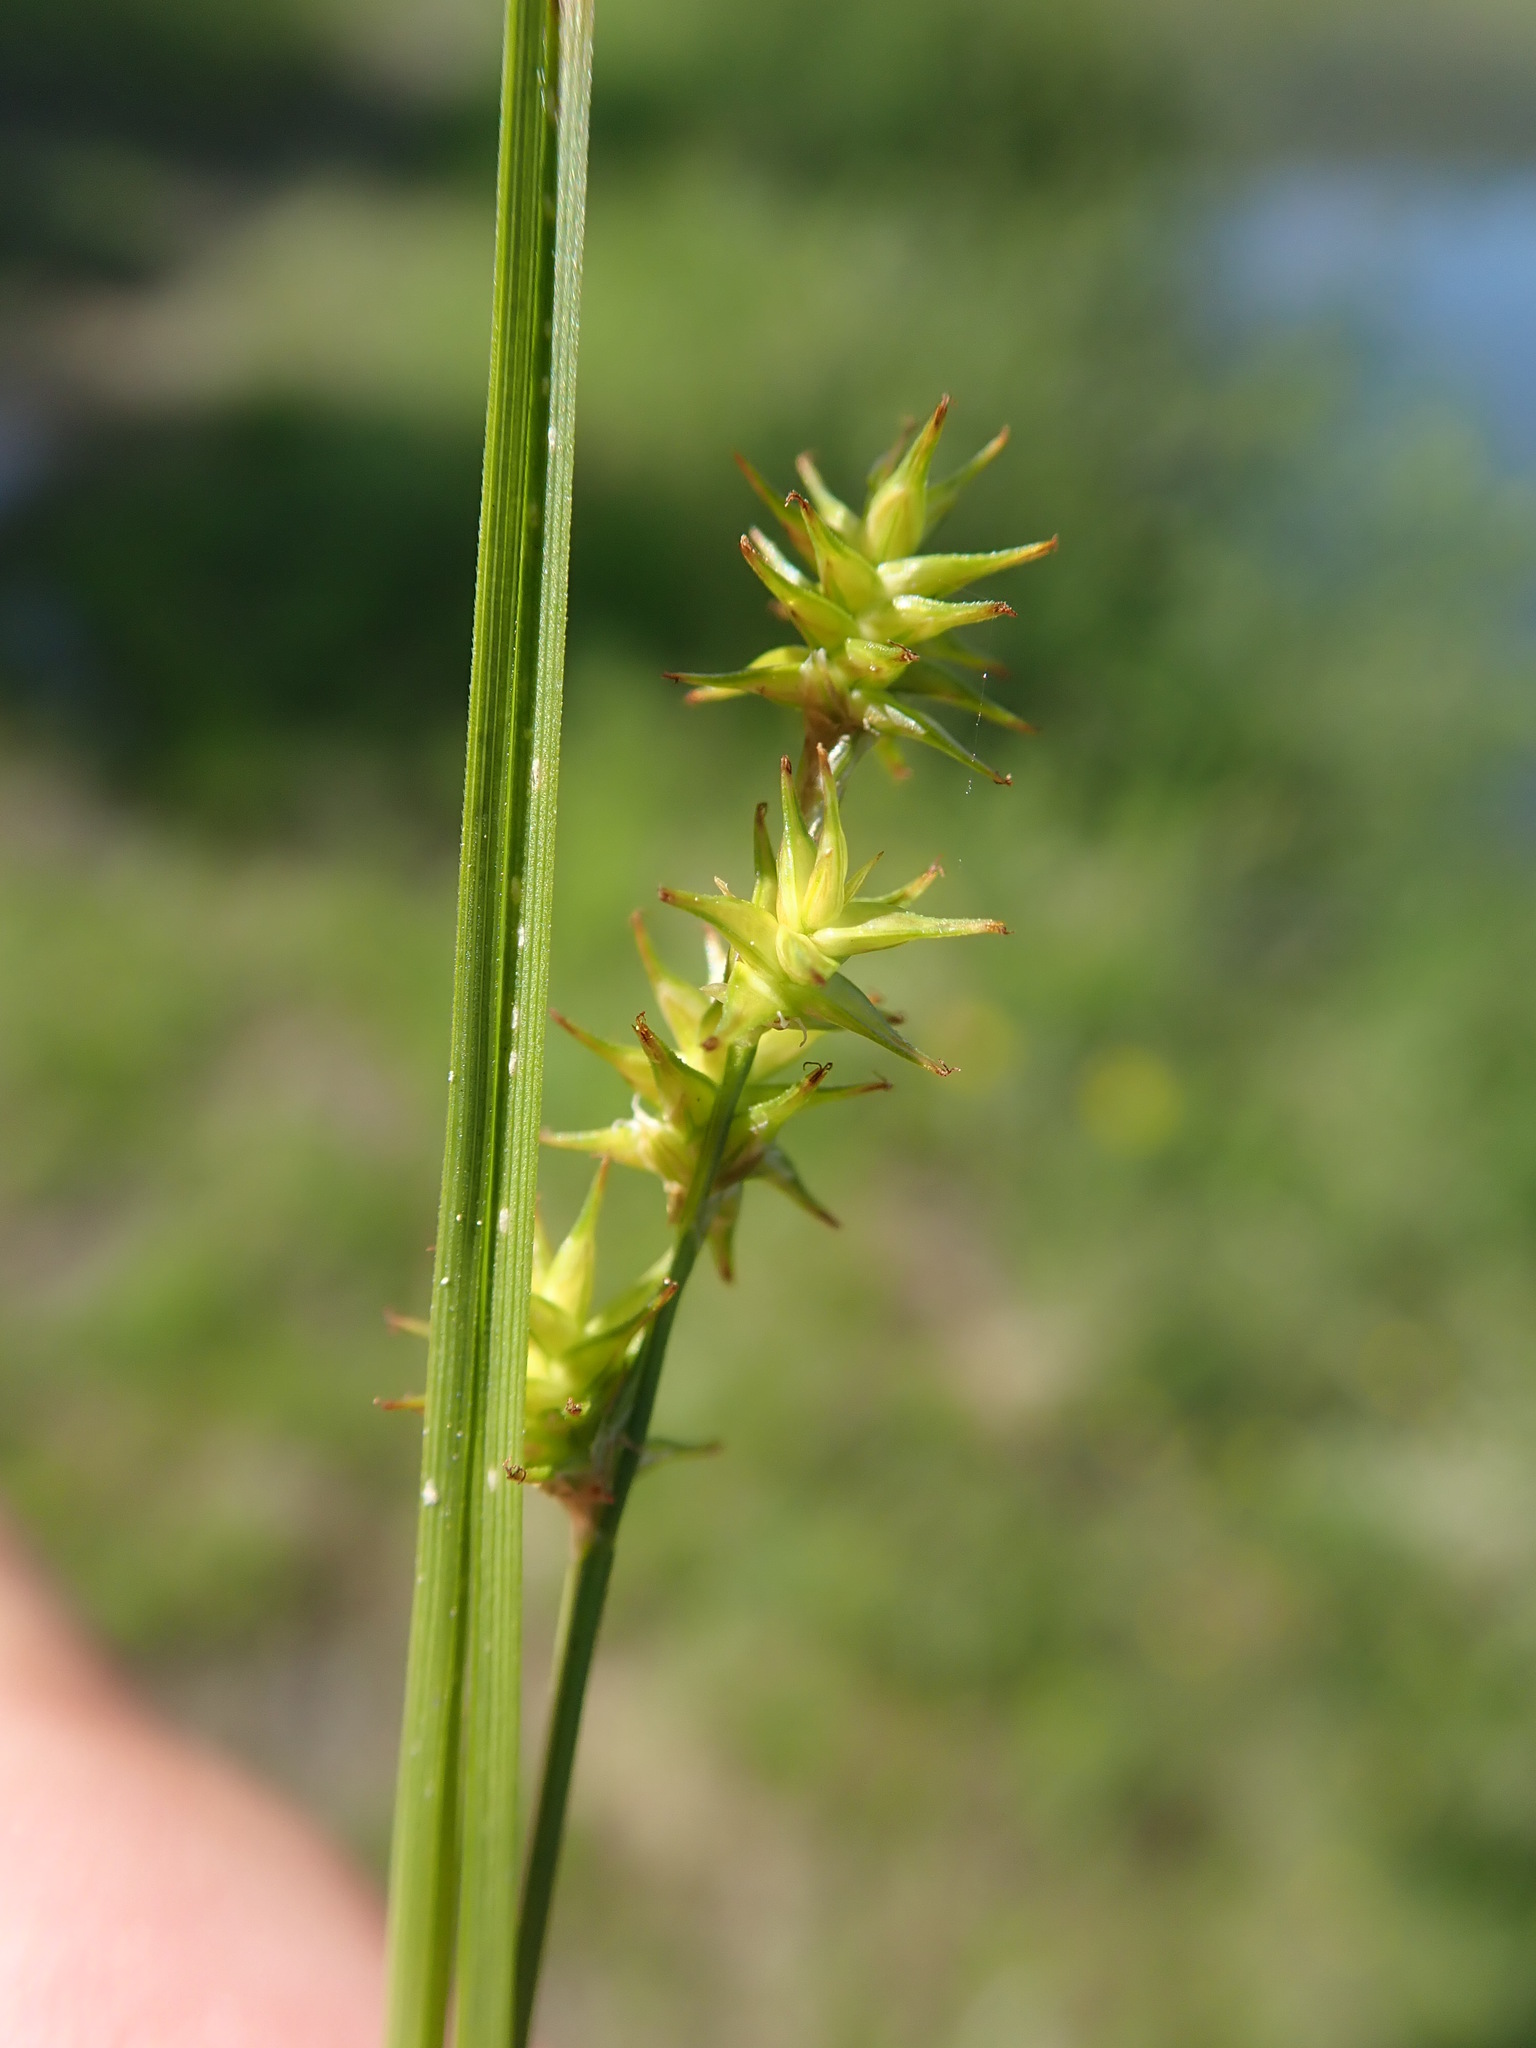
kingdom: Plantae
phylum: Tracheophyta
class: Liliopsida
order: Poales
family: Cyperaceae
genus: Carex
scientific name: Carex echinata
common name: Star sedge
